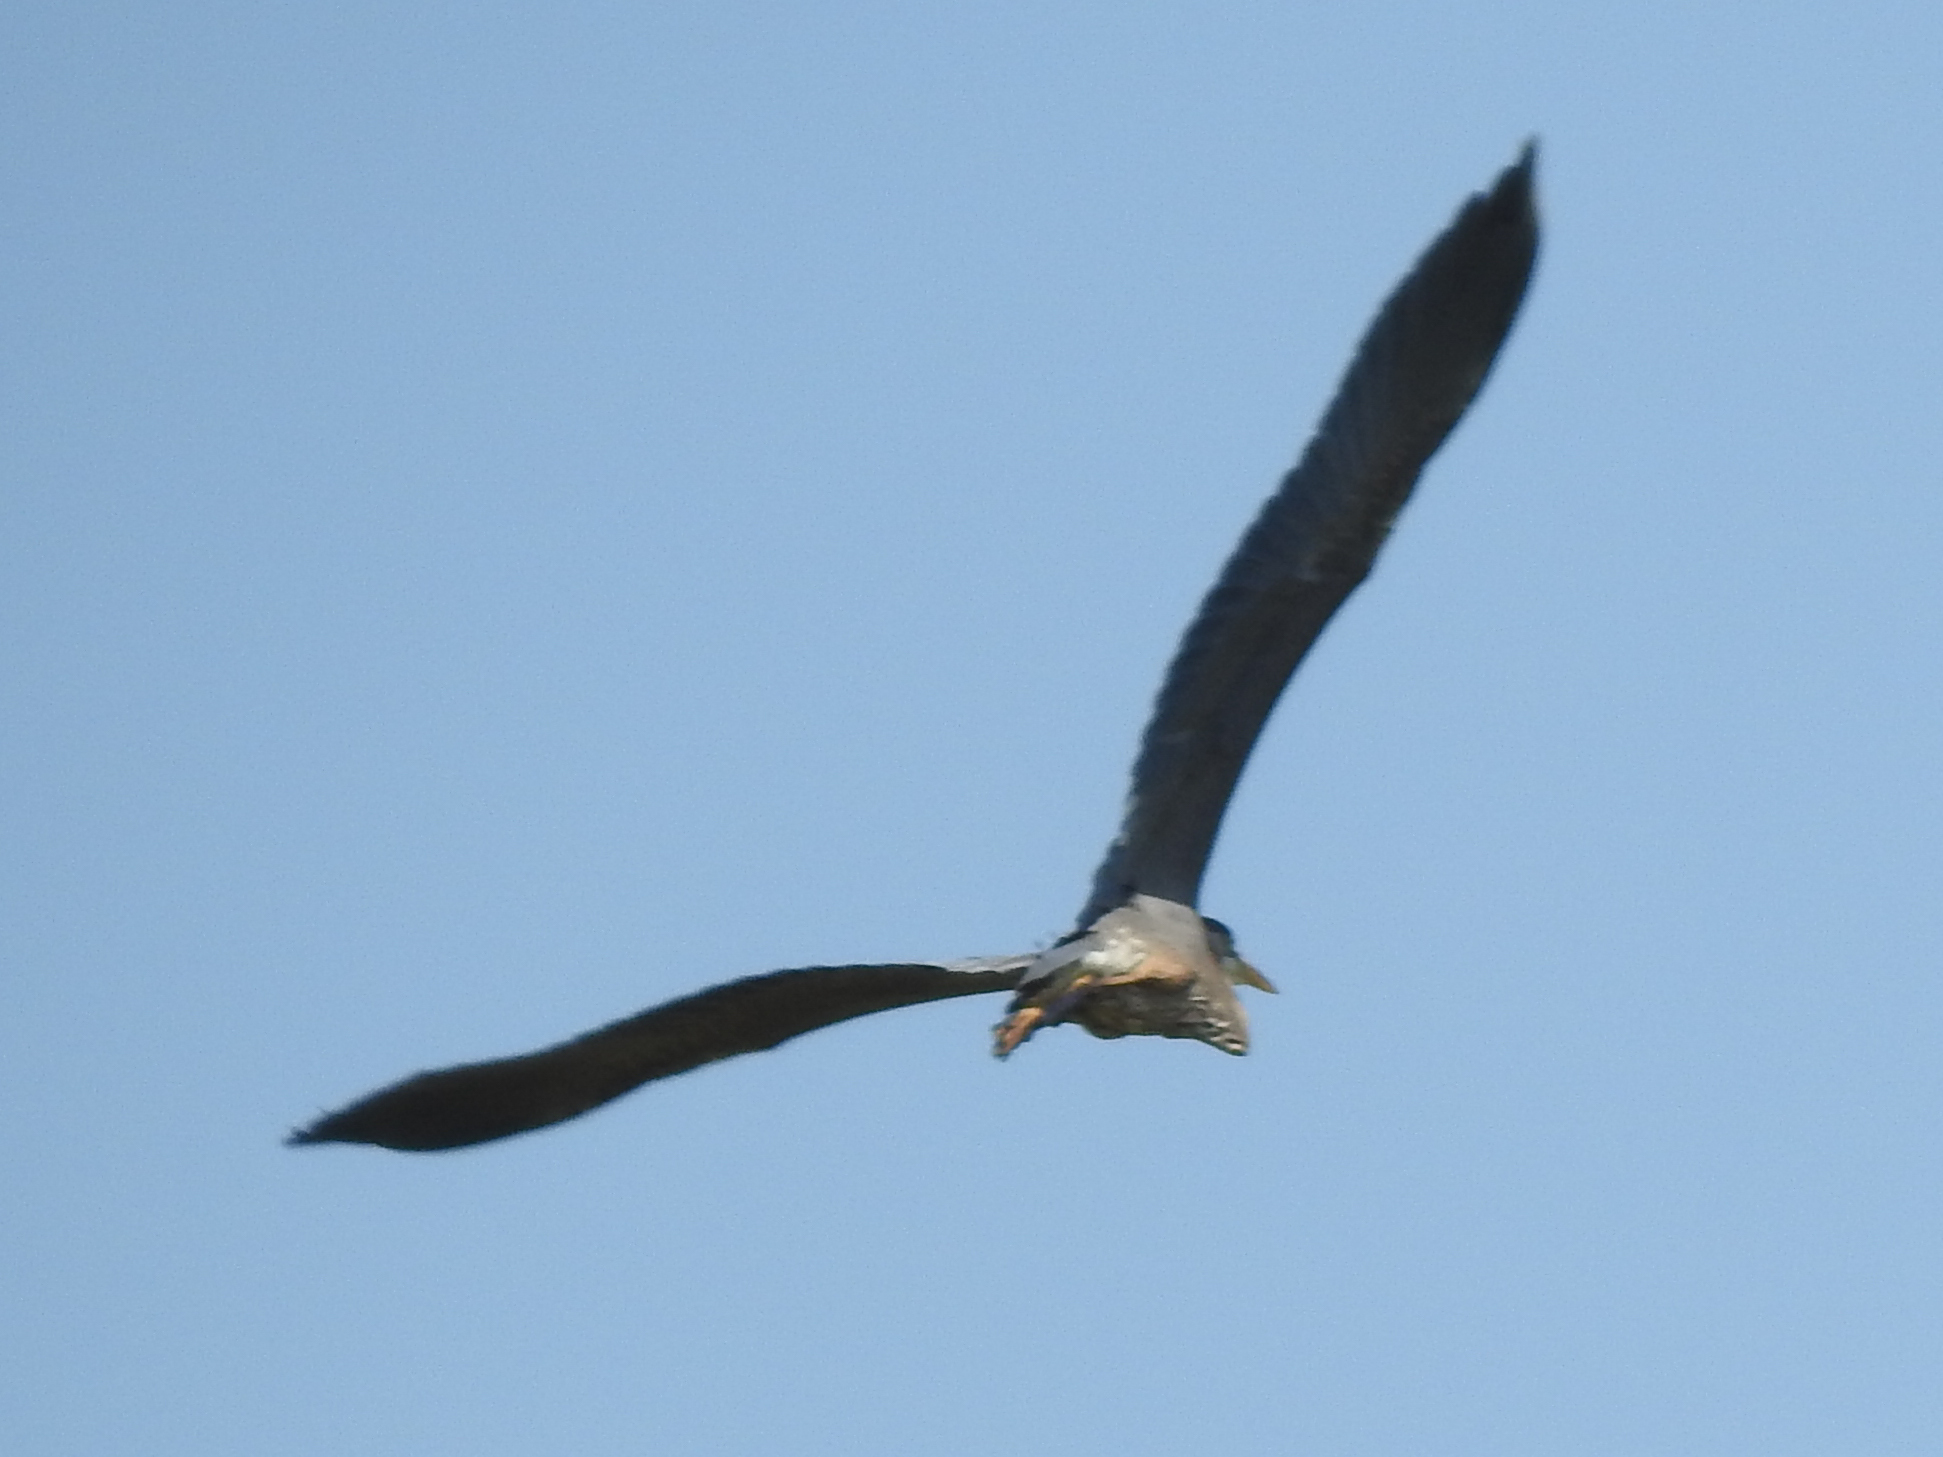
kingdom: Animalia
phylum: Chordata
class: Aves
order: Pelecaniformes
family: Ardeidae
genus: Ardea
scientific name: Ardea herodias
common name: Great blue heron
